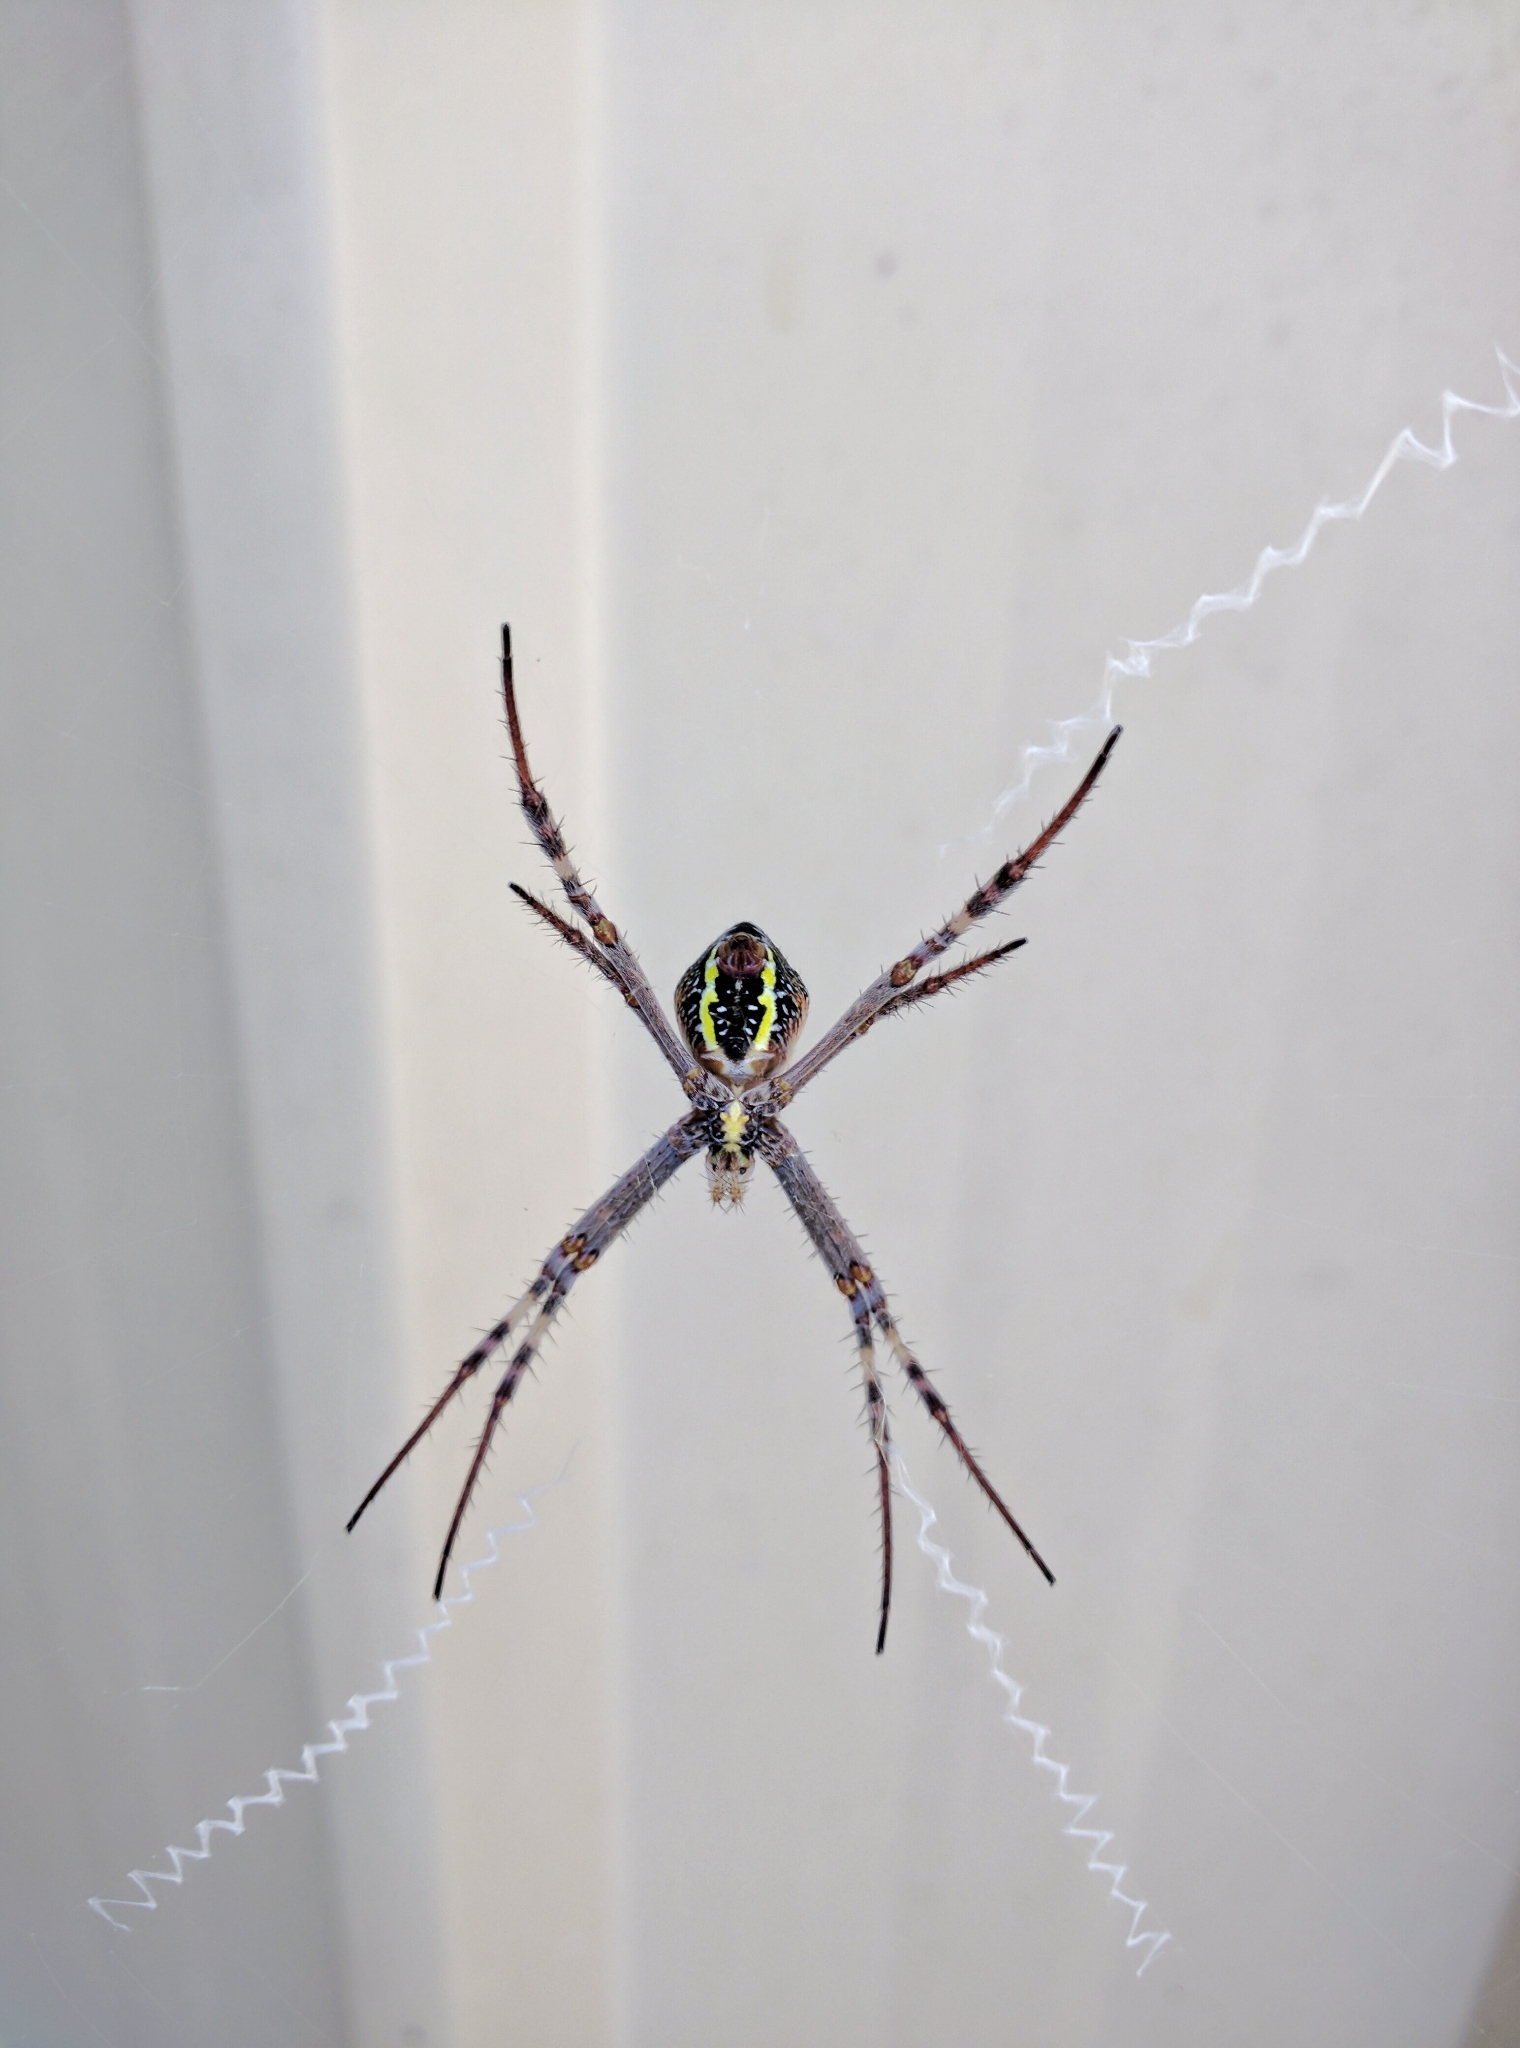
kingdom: Animalia
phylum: Arthropoda
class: Arachnida
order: Araneae
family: Araneidae
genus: Argiope
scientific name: Argiope keyserlingi
